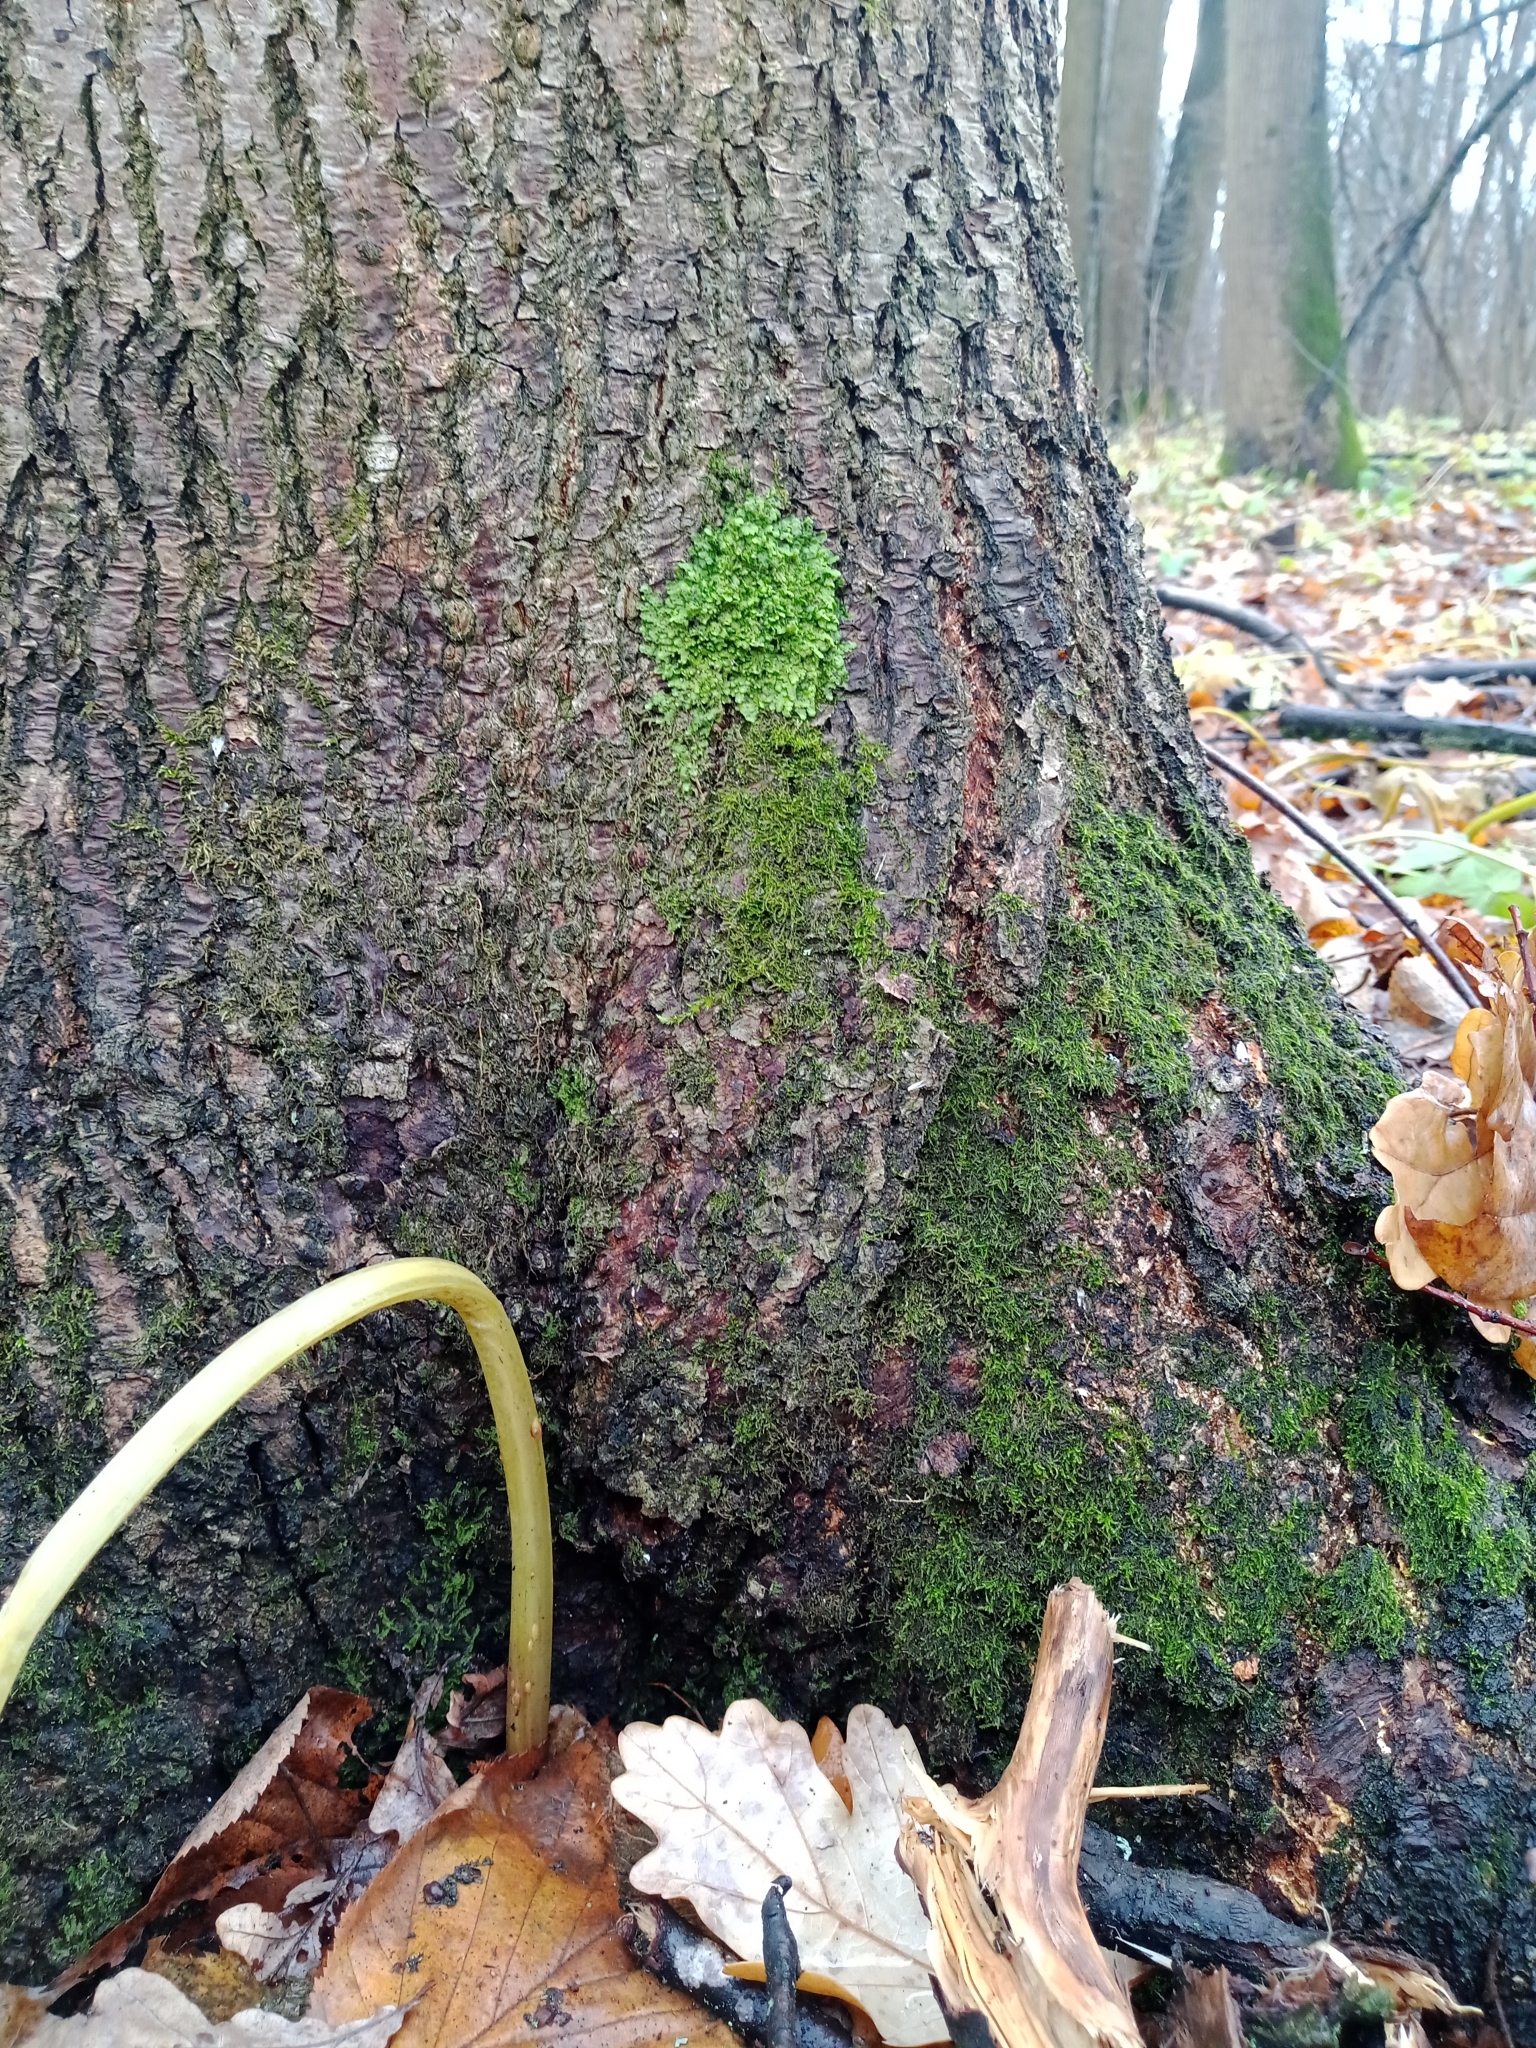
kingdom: Plantae
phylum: Marchantiophyta
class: Jungermanniopsida
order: Porellales
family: Radulaceae
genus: Radula
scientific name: Radula complanata
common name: Flat-leaved scalewort
